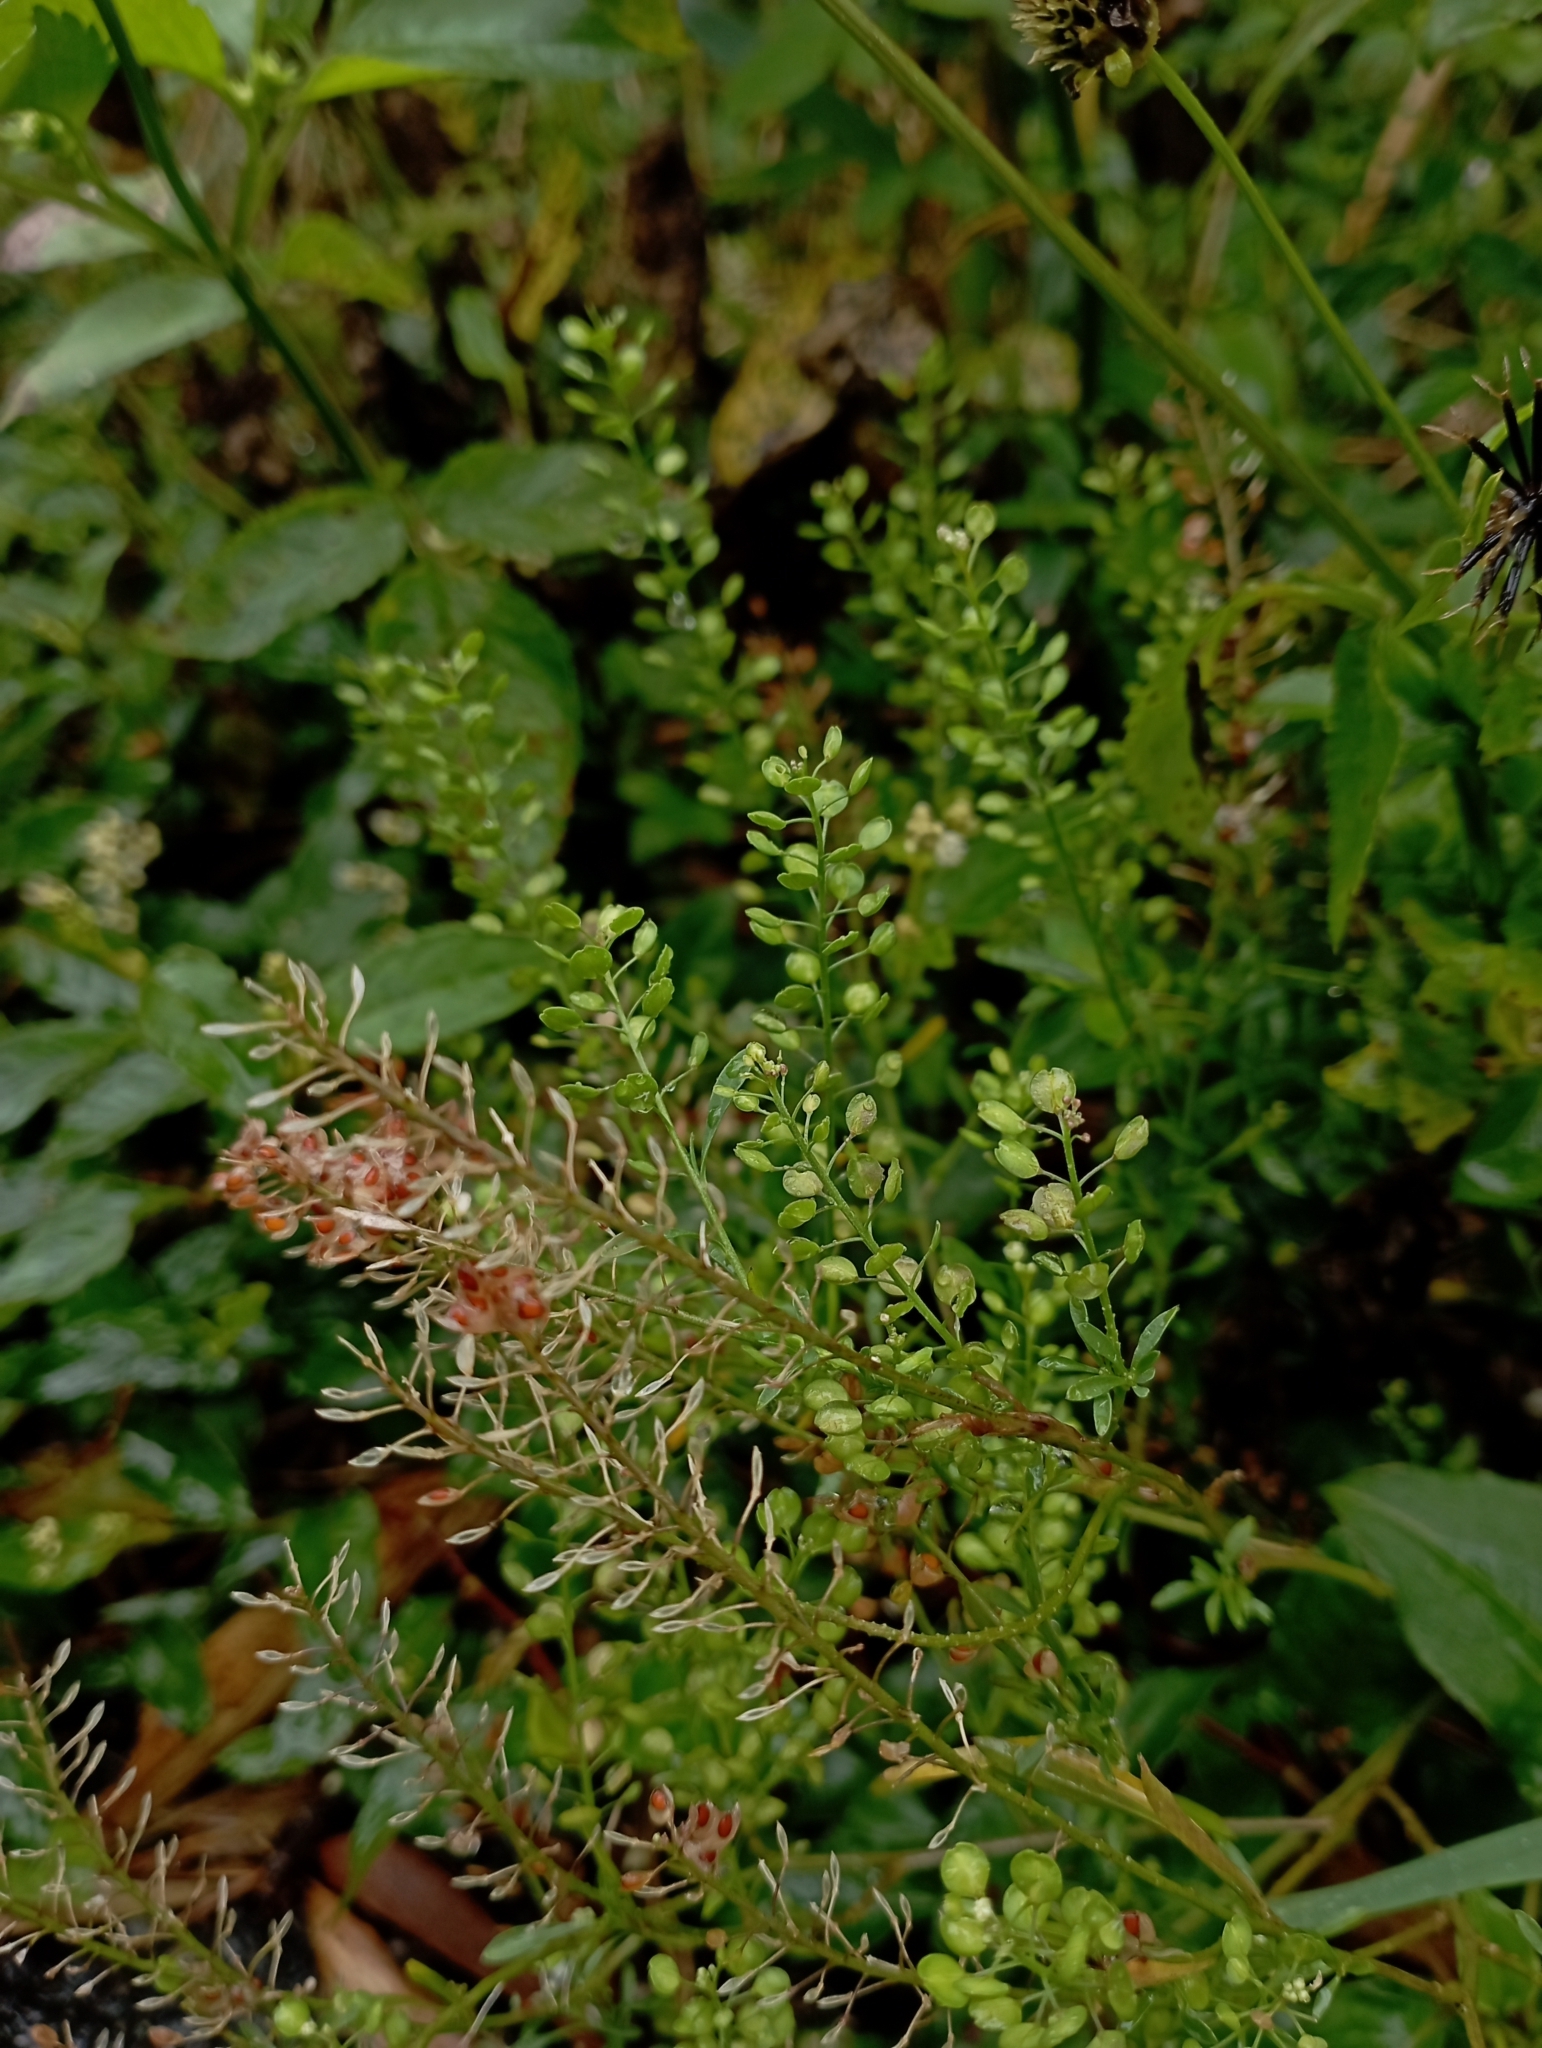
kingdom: Plantae
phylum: Tracheophyta
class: Magnoliopsida
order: Brassicales
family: Brassicaceae
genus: Lepidium
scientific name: Lepidium virginicum
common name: Least pepperwort
